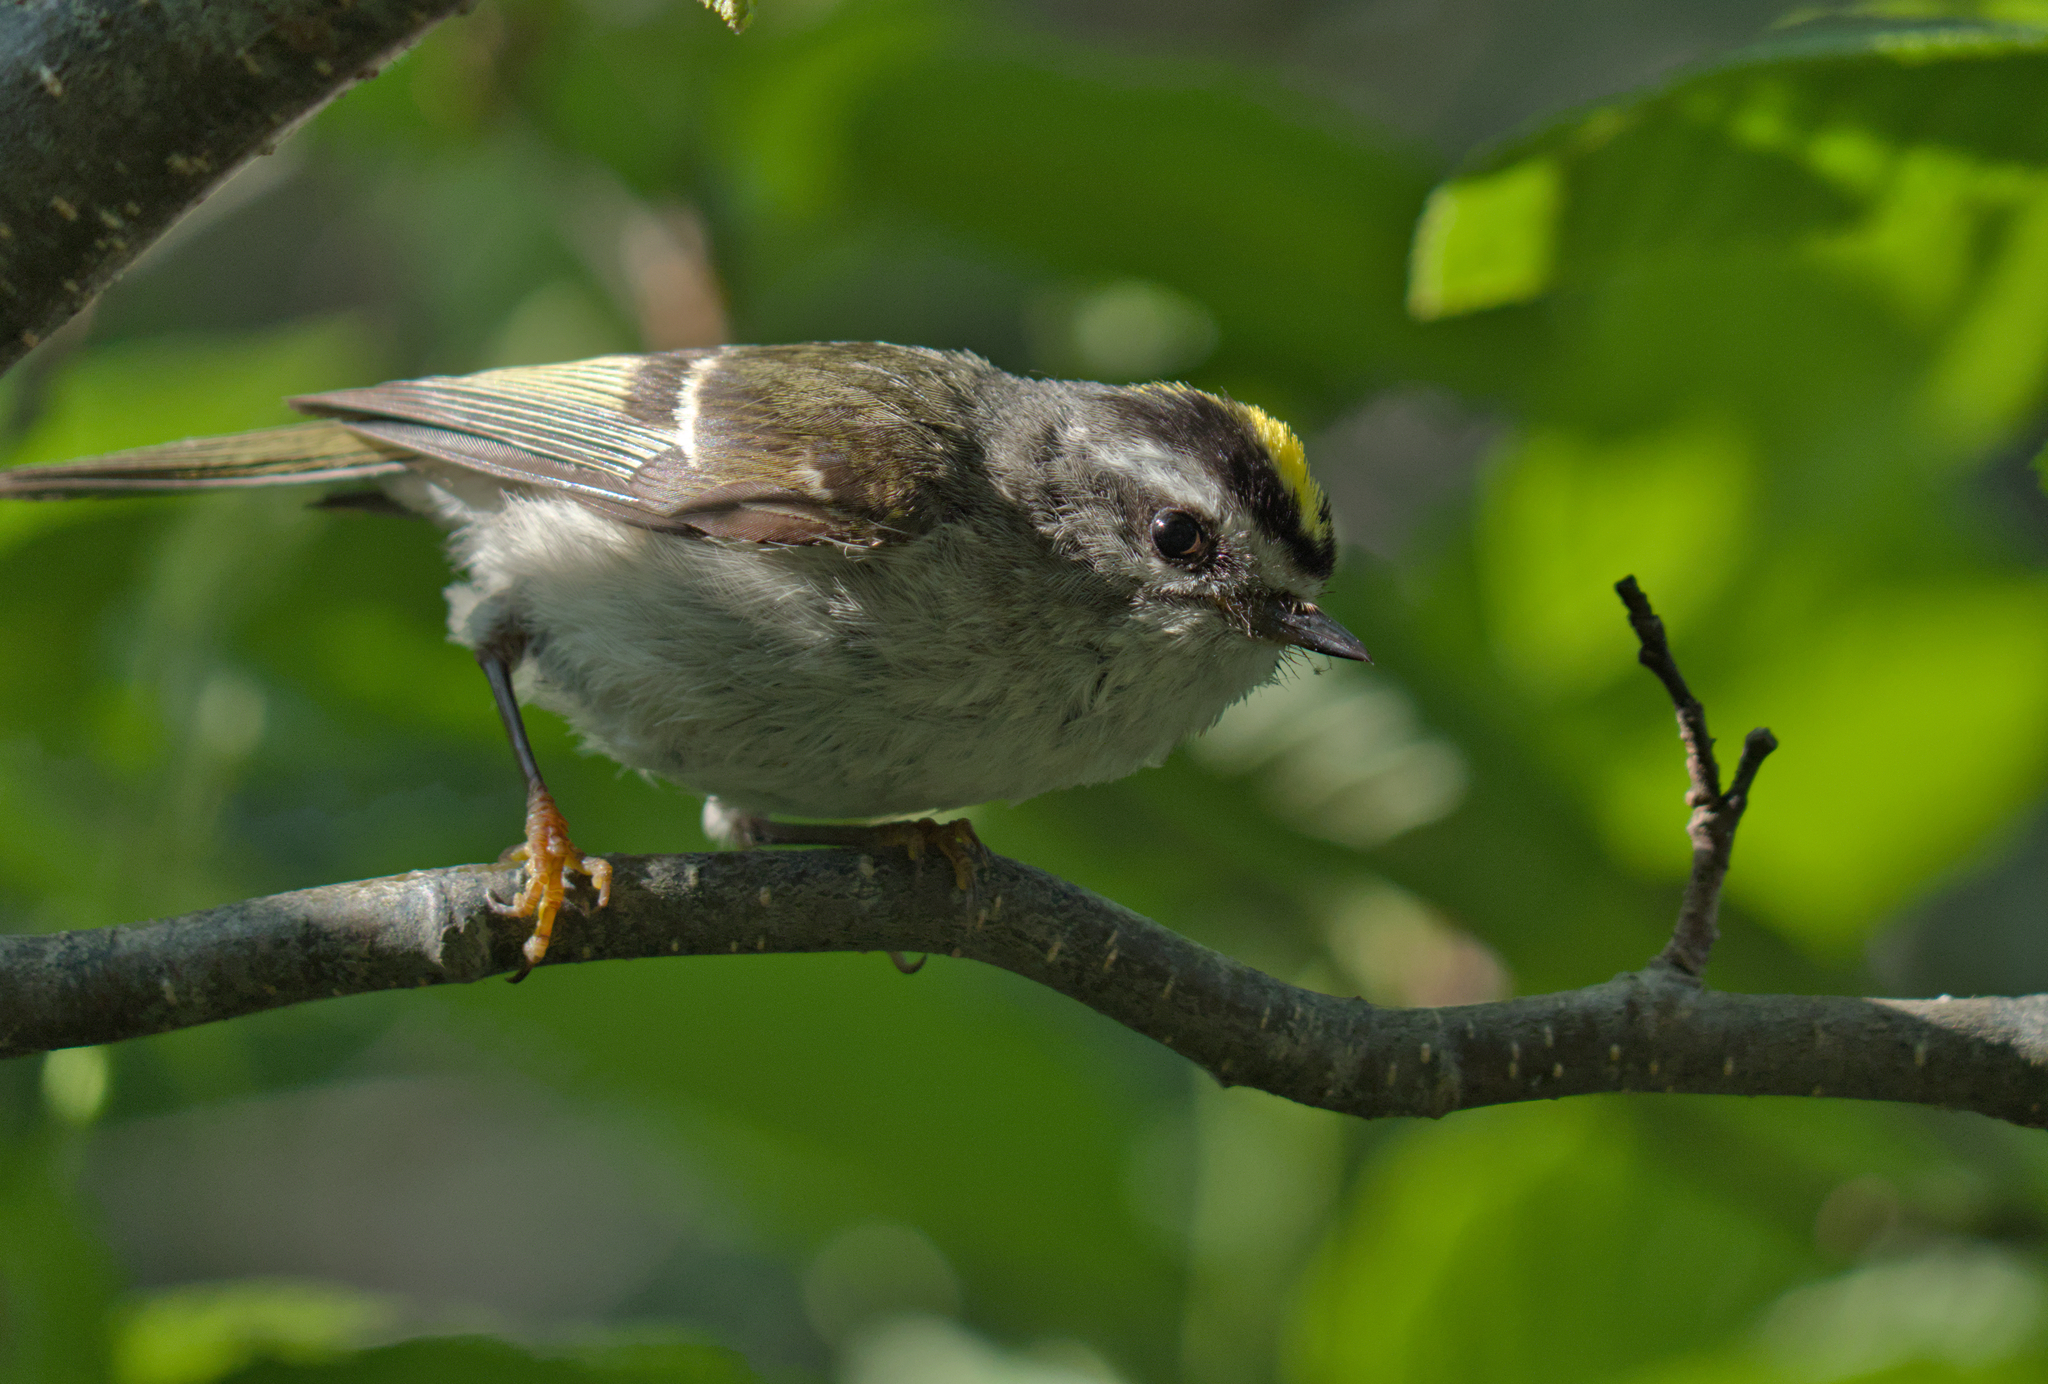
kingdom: Animalia
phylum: Chordata
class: Aves
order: Passeriformes
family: Regulidae
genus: Regulus
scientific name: Regulus satrapa
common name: Golden-crowned kinglet
